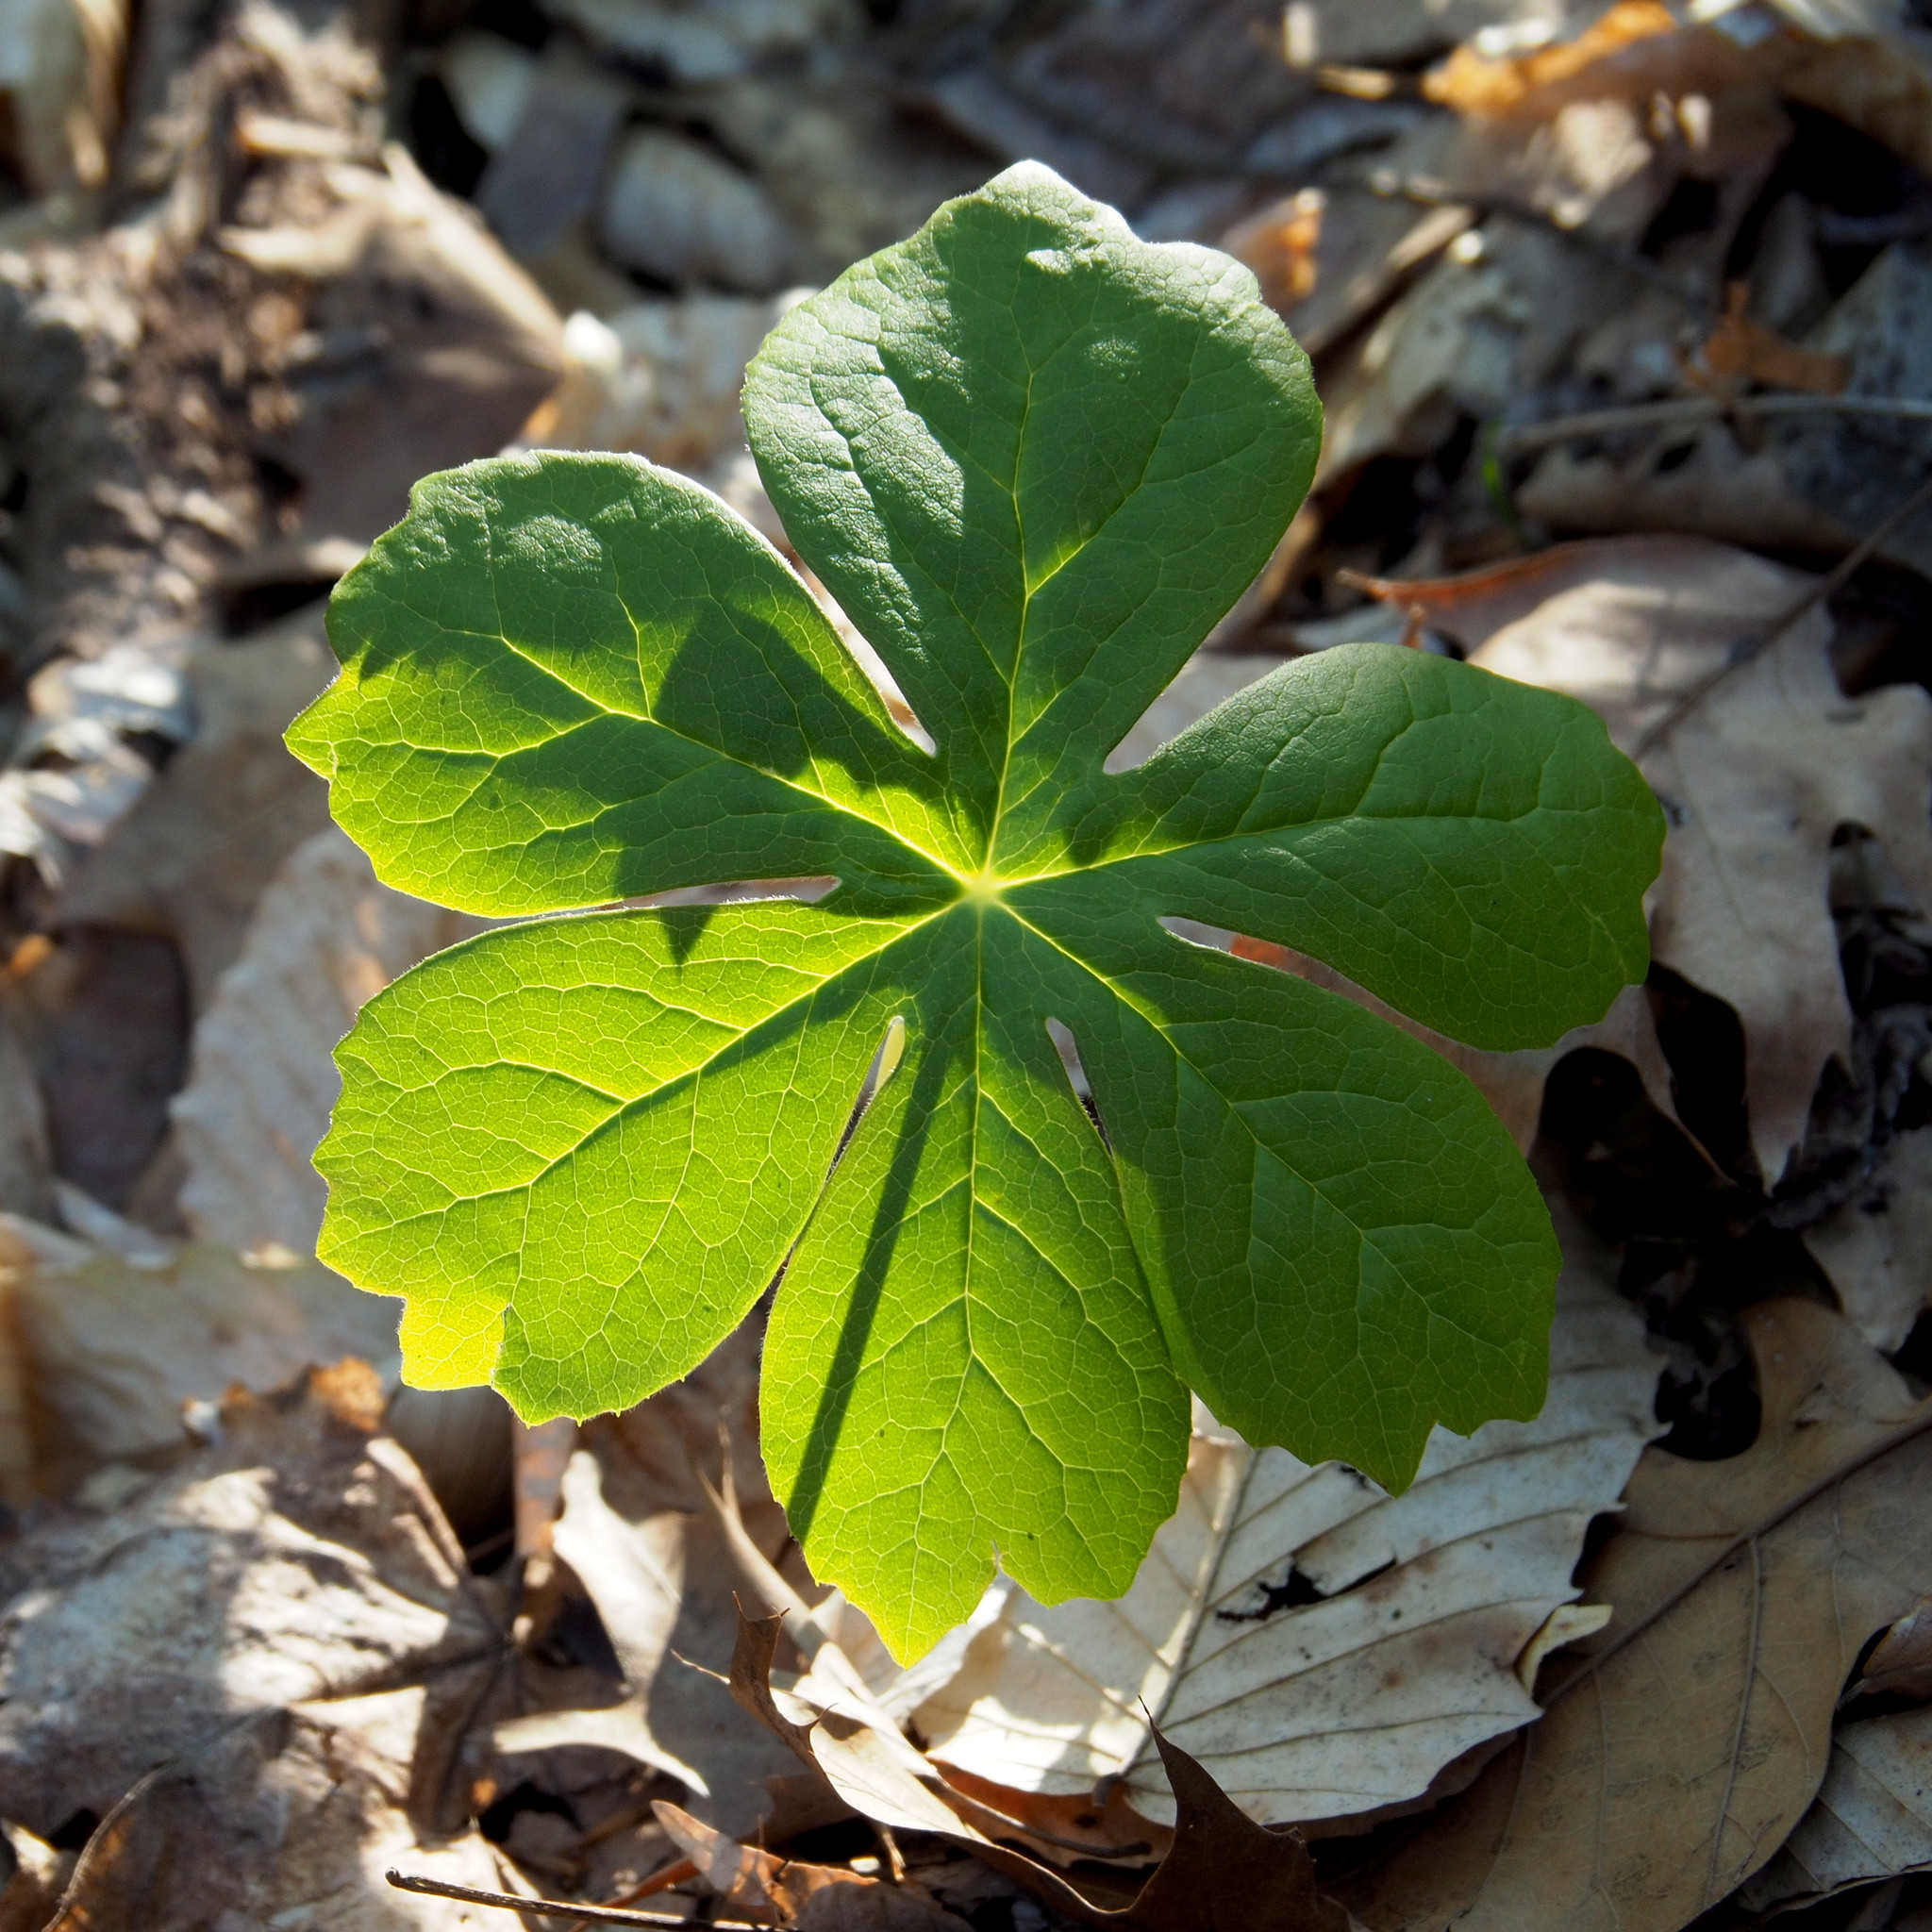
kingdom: Plantae
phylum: Tracheophyta
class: Magnoliopsida
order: Ranunculales
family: Berberidaceae
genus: Podophyllum
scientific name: Podophyllum peltatum
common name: Wild mandrake
